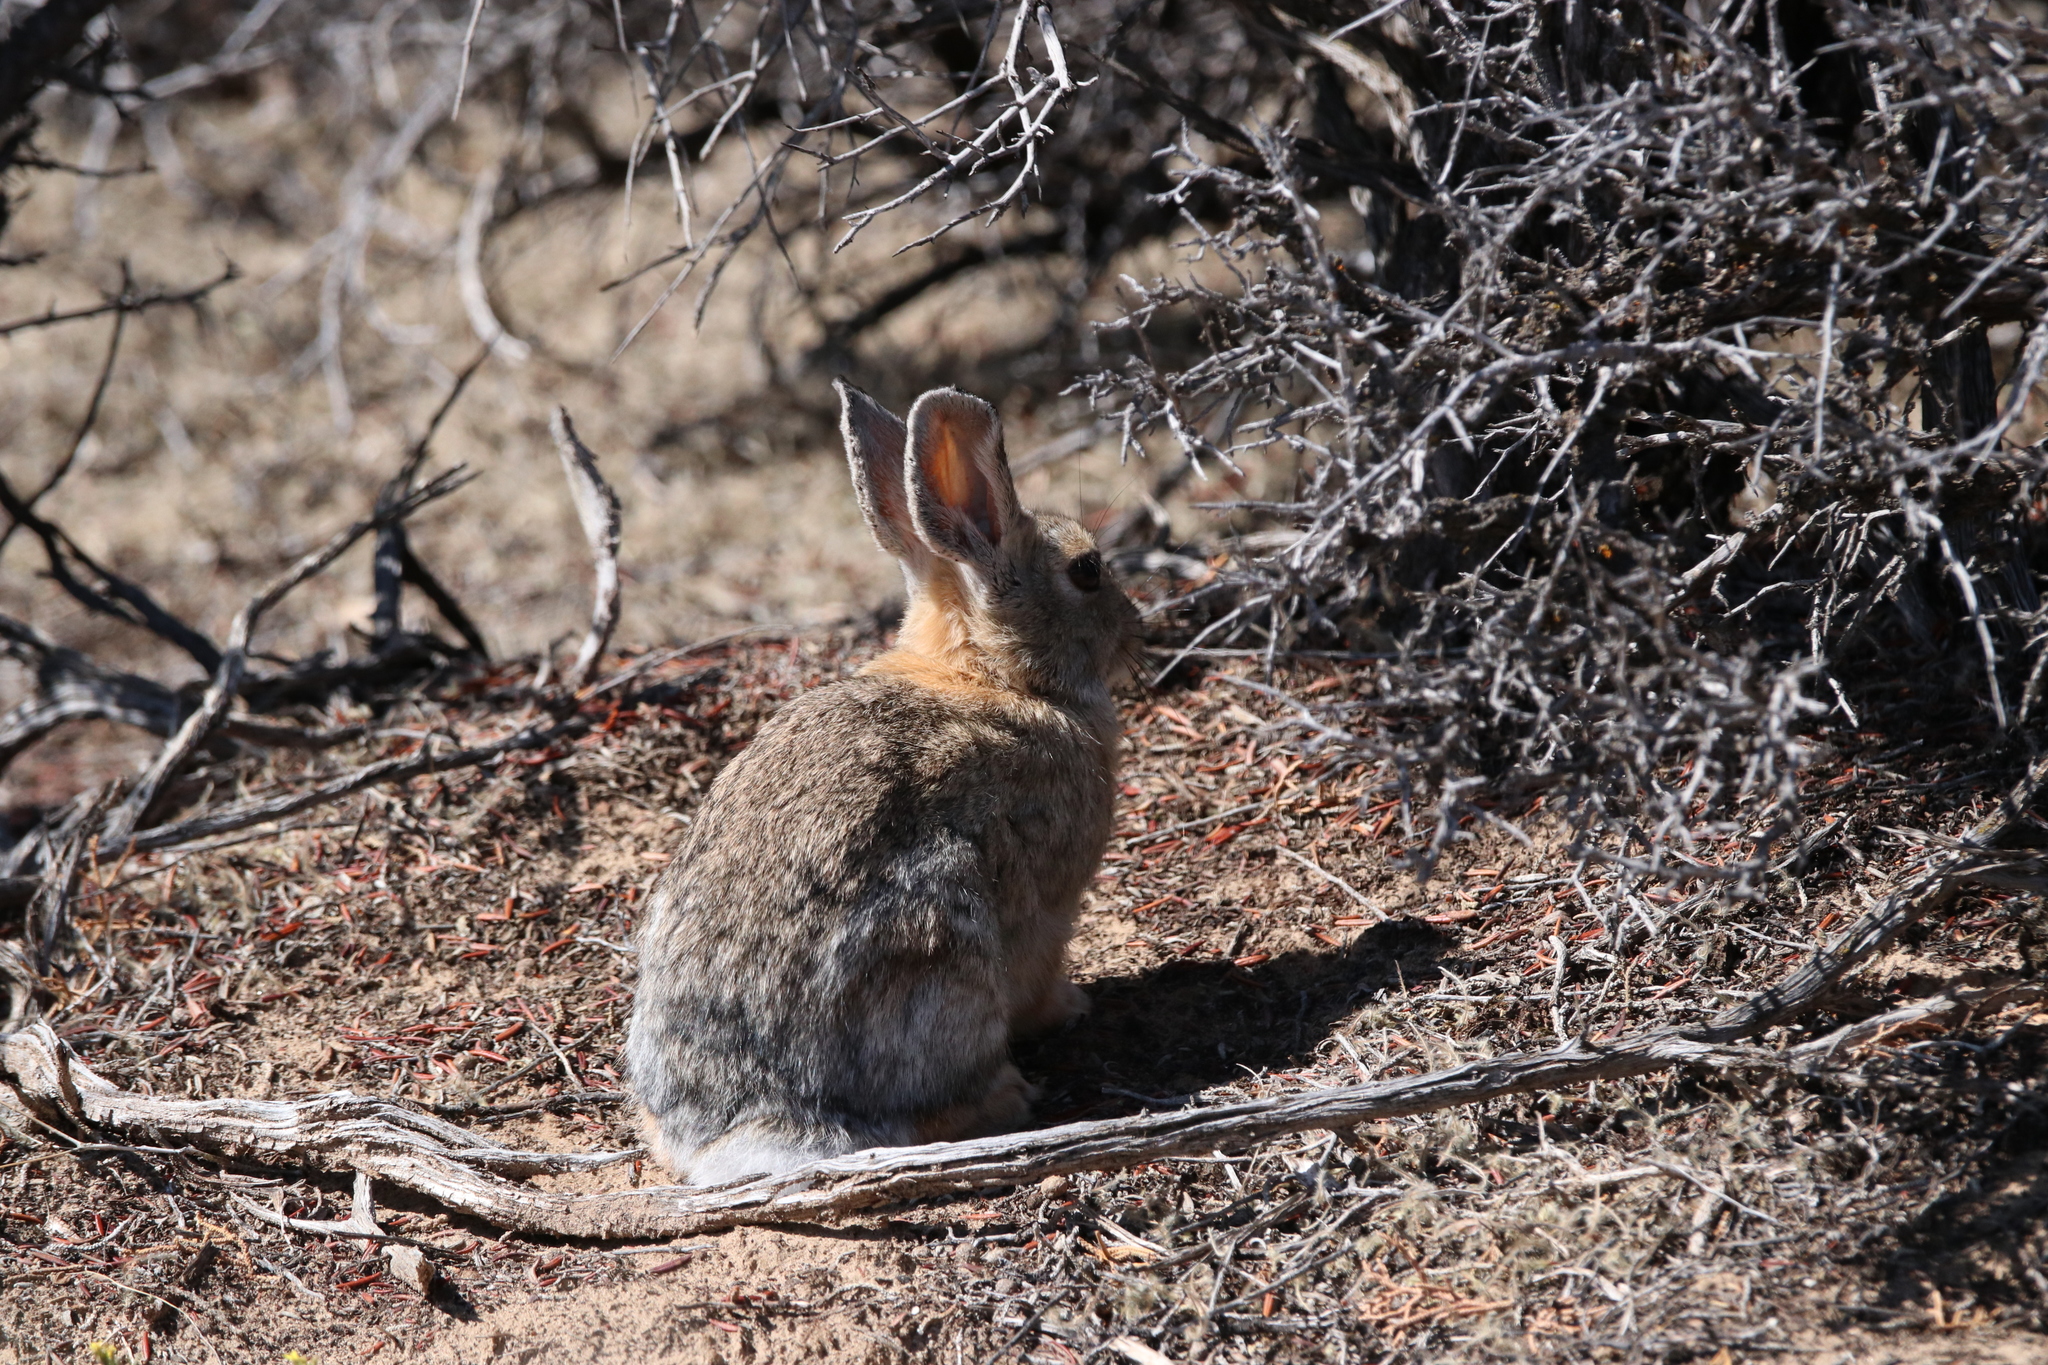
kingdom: Animalia
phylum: Chordata
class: Mammalia
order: Lagomorpha
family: Leporidae
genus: Sylvilagus
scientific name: Sylvilagus audubonii
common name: Desert cottontail
